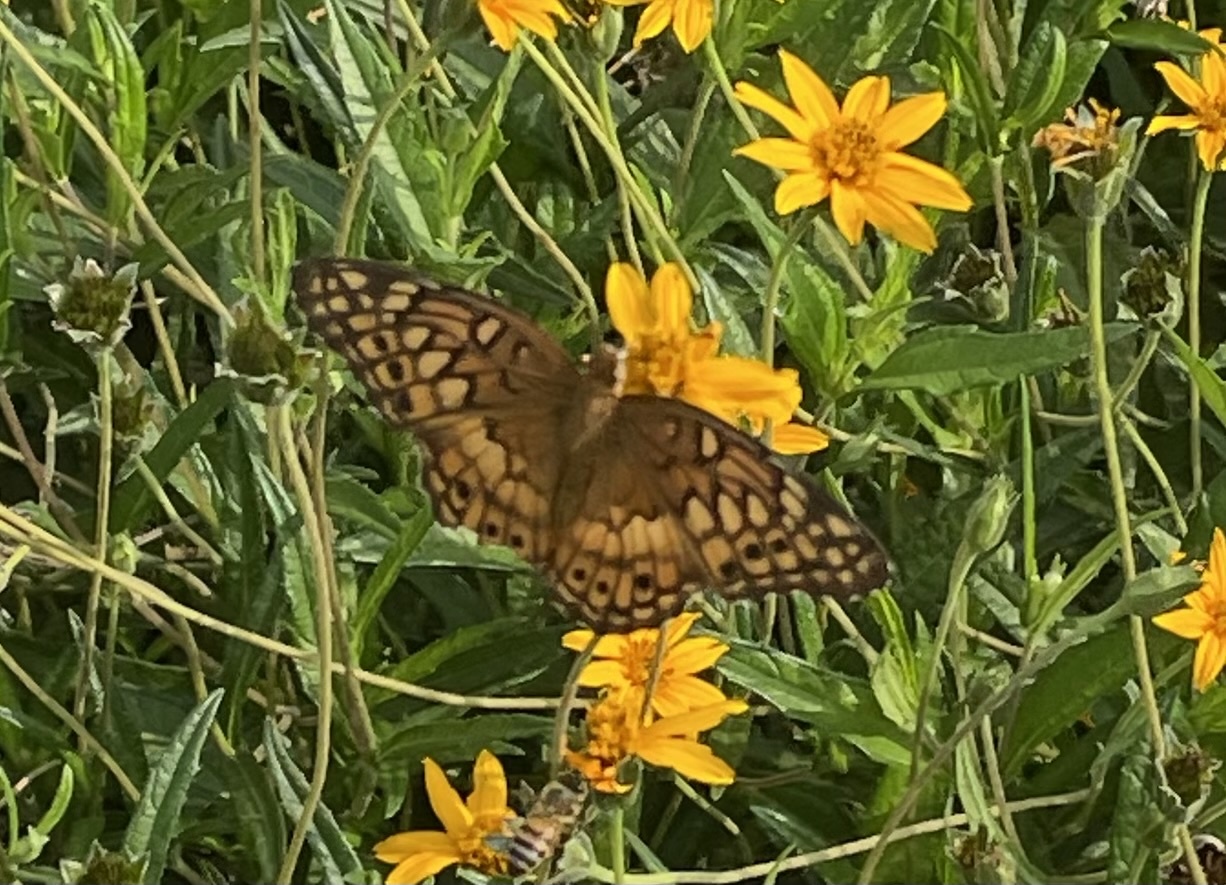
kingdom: Animalia
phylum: Arthropoda
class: Insecta
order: Lepidoptera
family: Nymphalidae
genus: Euptoieta
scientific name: Euptoieta claudia
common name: Variegated fritillary
